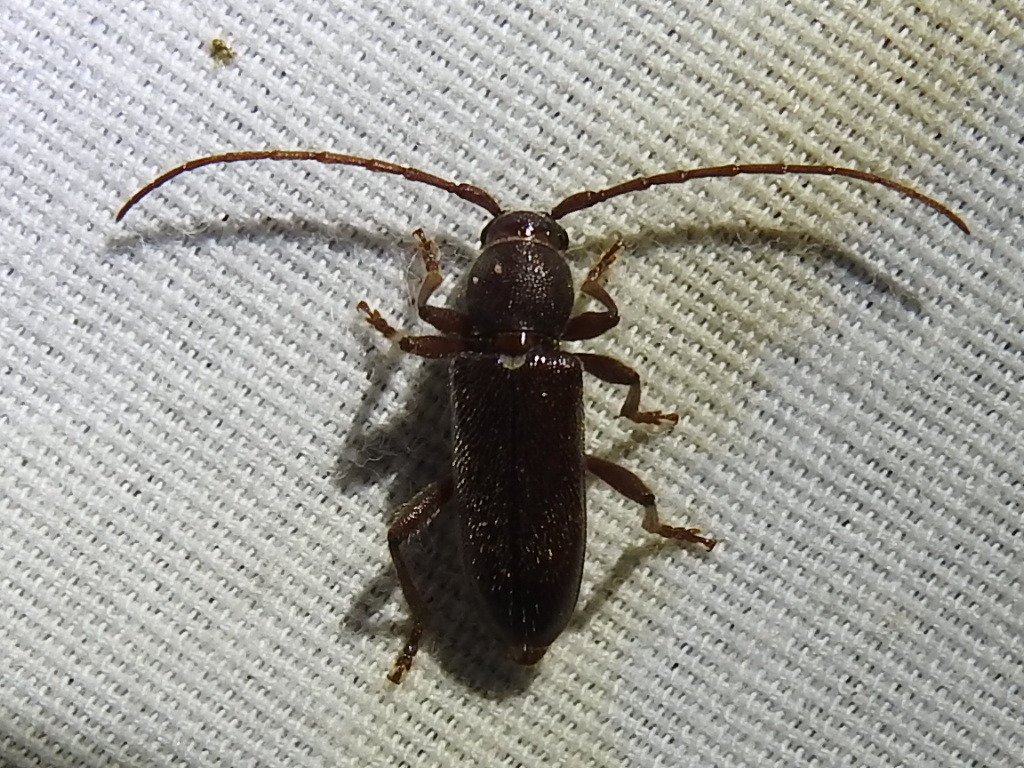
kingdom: Animalia
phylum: Arthropoda
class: Insecta
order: Coleoptera
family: Cerambycidae
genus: Anelaphus
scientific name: Anelaphus moestus
